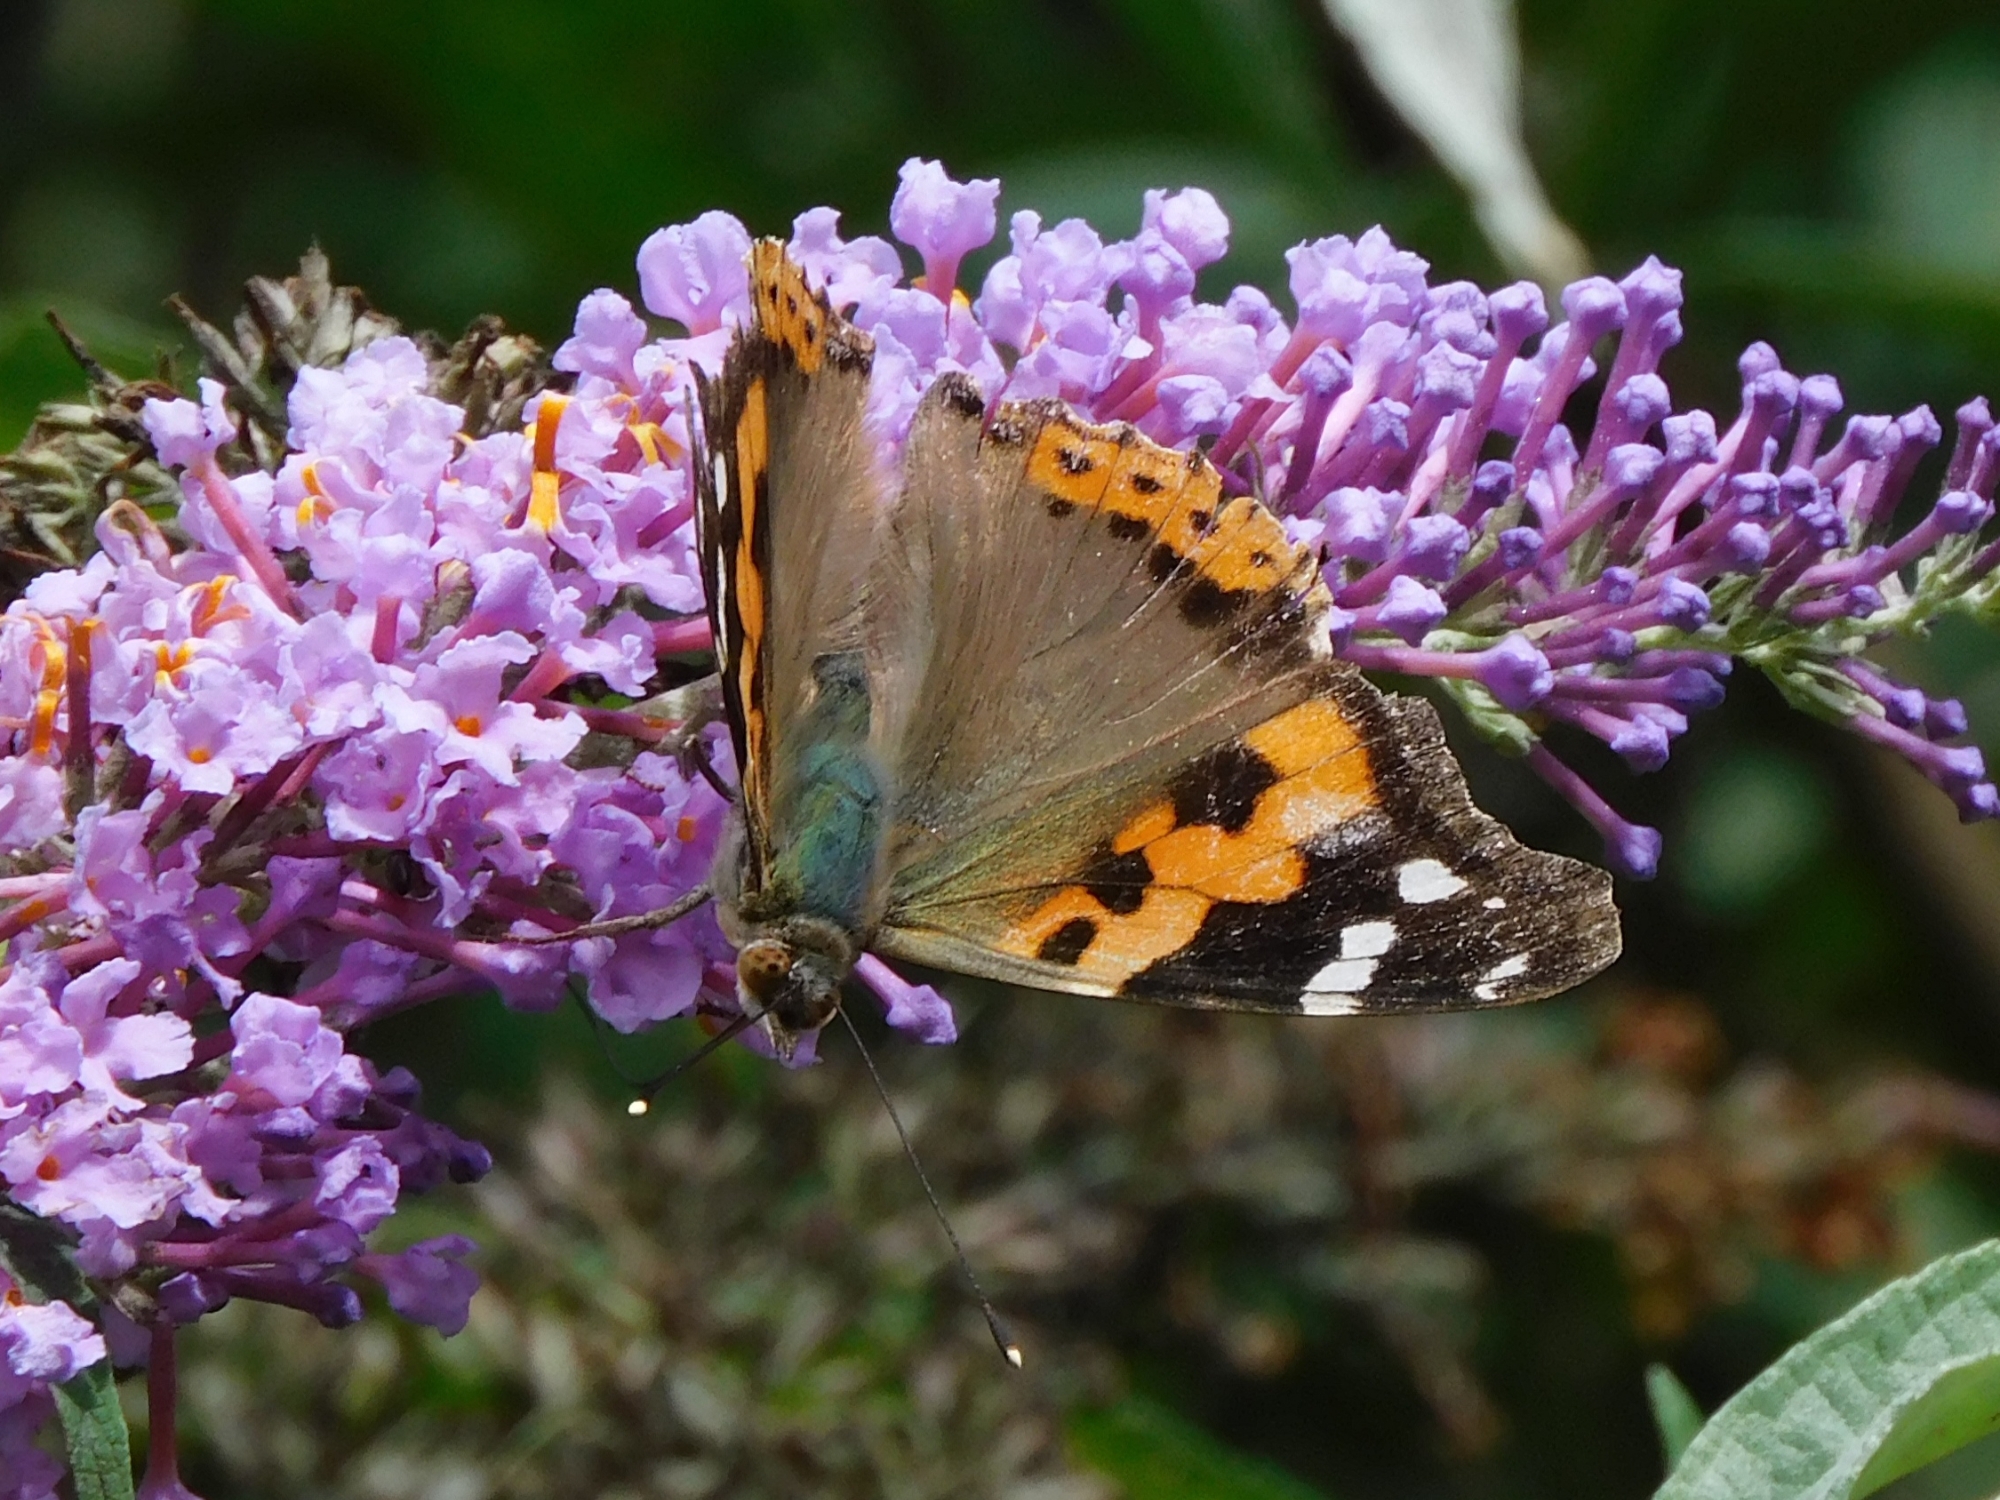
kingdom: Animalia
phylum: Arthropoda
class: Insecta
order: Lepidoptera
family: Nymphalidae
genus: Vanessa
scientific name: Vanessa indica
